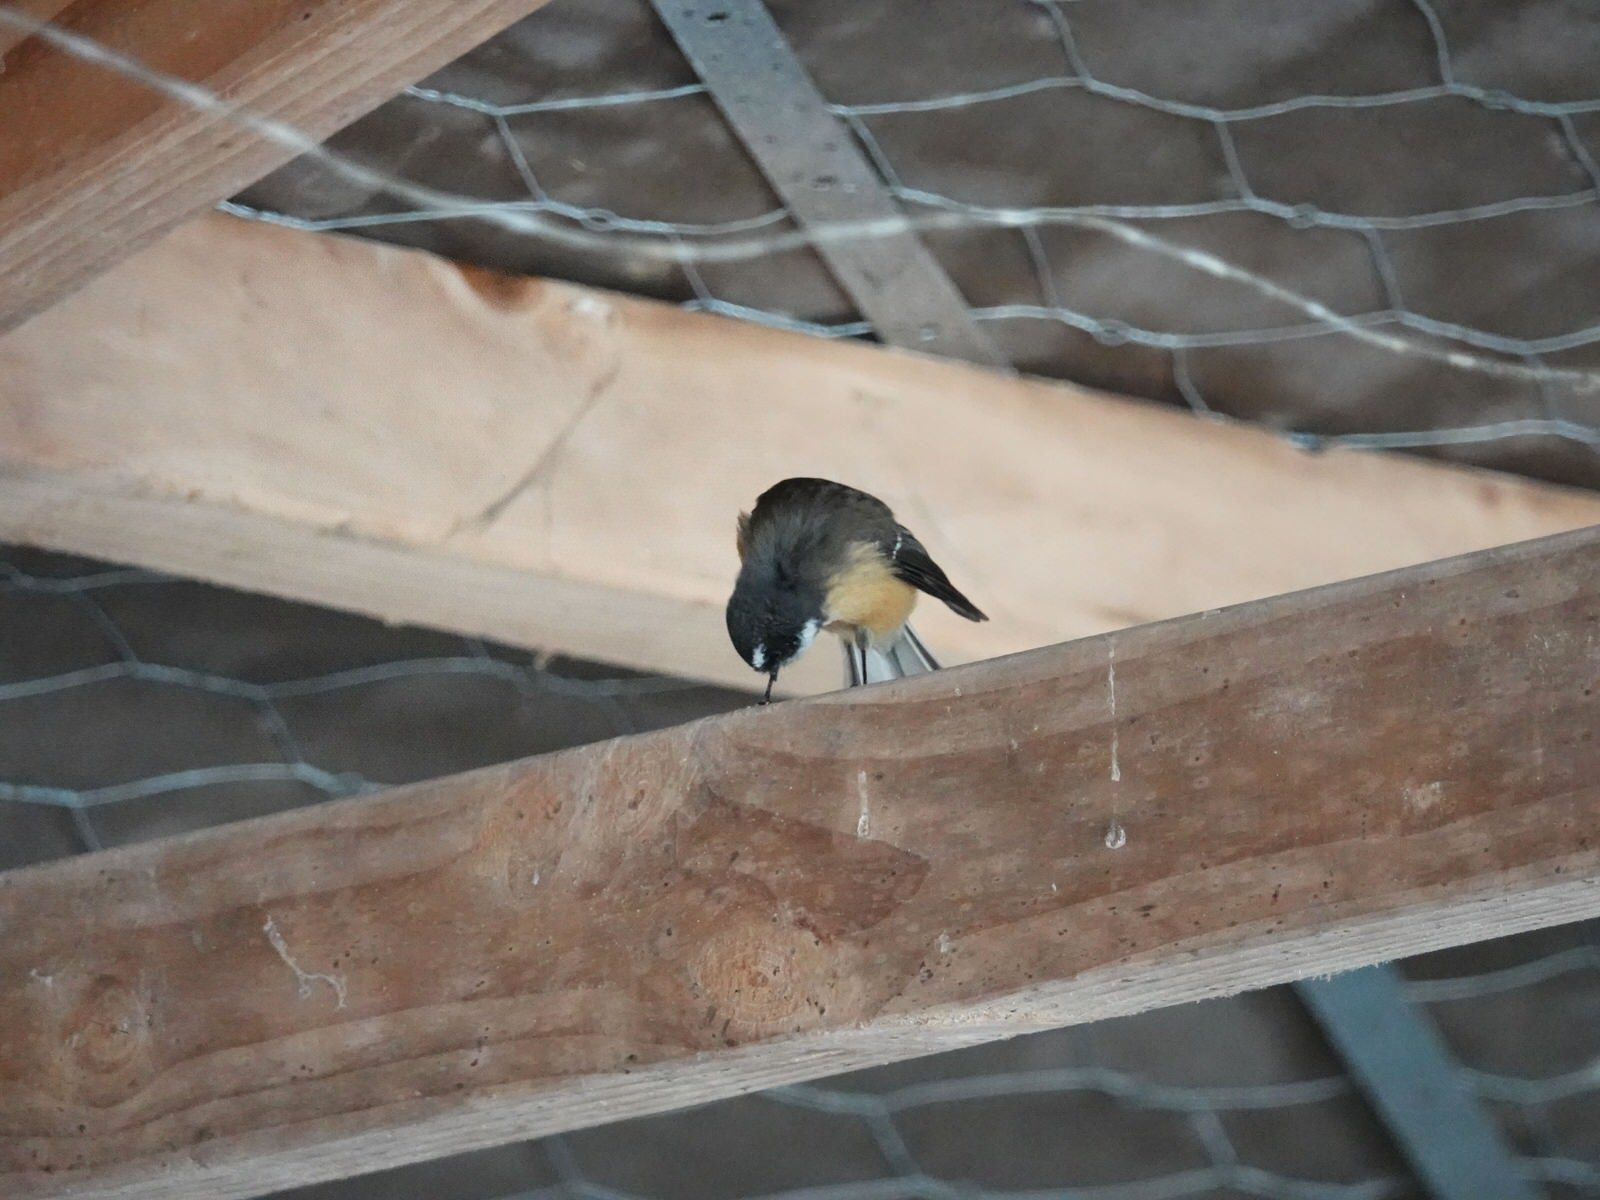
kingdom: Animalia
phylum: Chordata
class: Aves
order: Passeriformes
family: Rhipiduridae
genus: Rhipidura
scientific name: Rhipidura fuliginosa
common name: New zealand fantail
